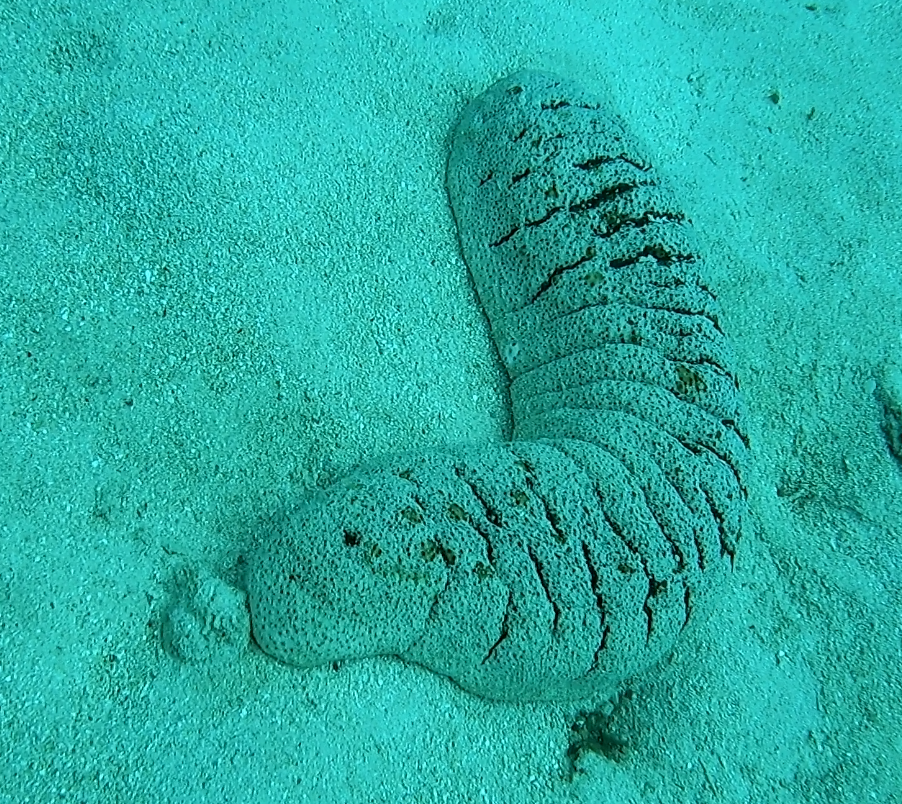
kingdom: Animalia
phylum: Echinodermata
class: Holothuroidea
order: Holothuriida
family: Holothuriidae
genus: Holothuria
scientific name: Holothuria fuscopunctata
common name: Elephant trunkfish
